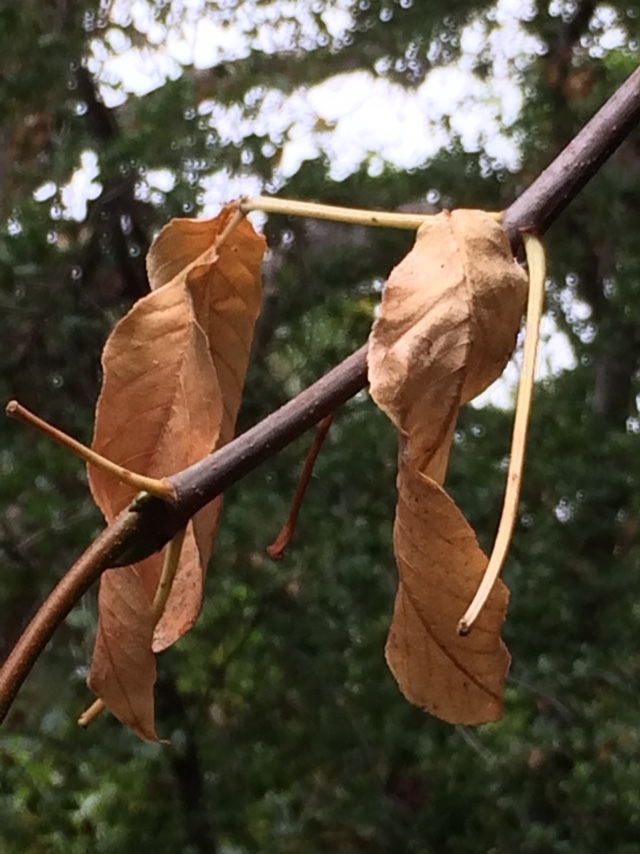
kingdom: Plantae
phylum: Tracheophyta
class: Magnoliopsida
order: Sapindales
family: Sapindaceae
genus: Aesculus
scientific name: Aesculus californica
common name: California buckeye
